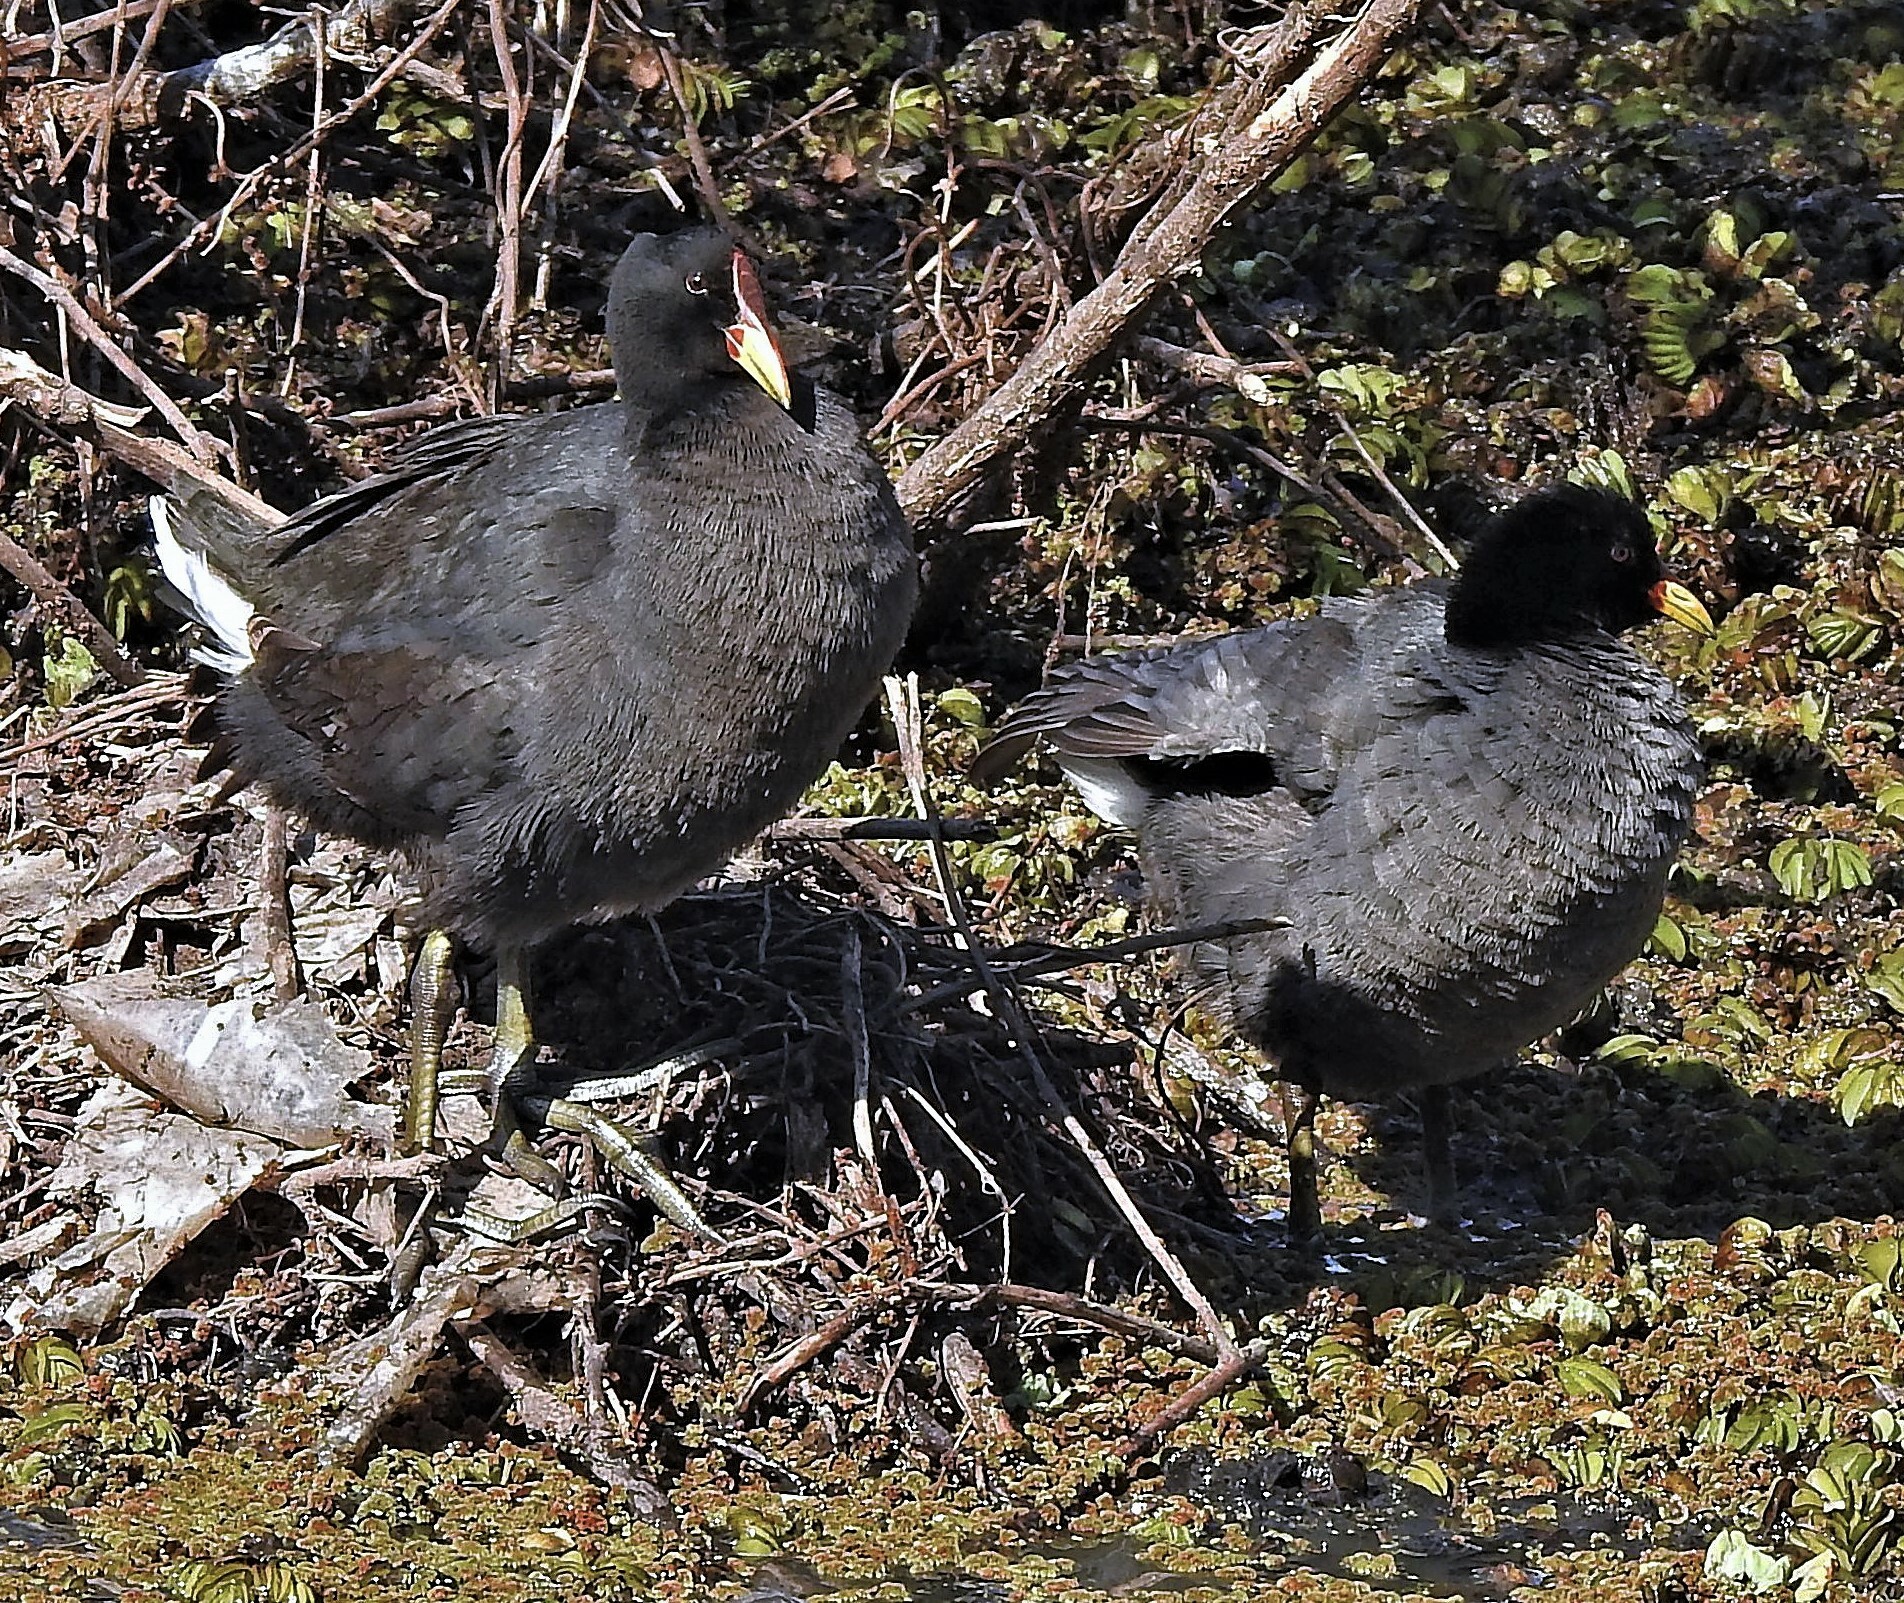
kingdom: Animalia
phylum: Chordata
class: Aves
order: Gruiformes
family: Rallidae
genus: Fulica
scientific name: Fulica rufifrons
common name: Red-fronted coot
